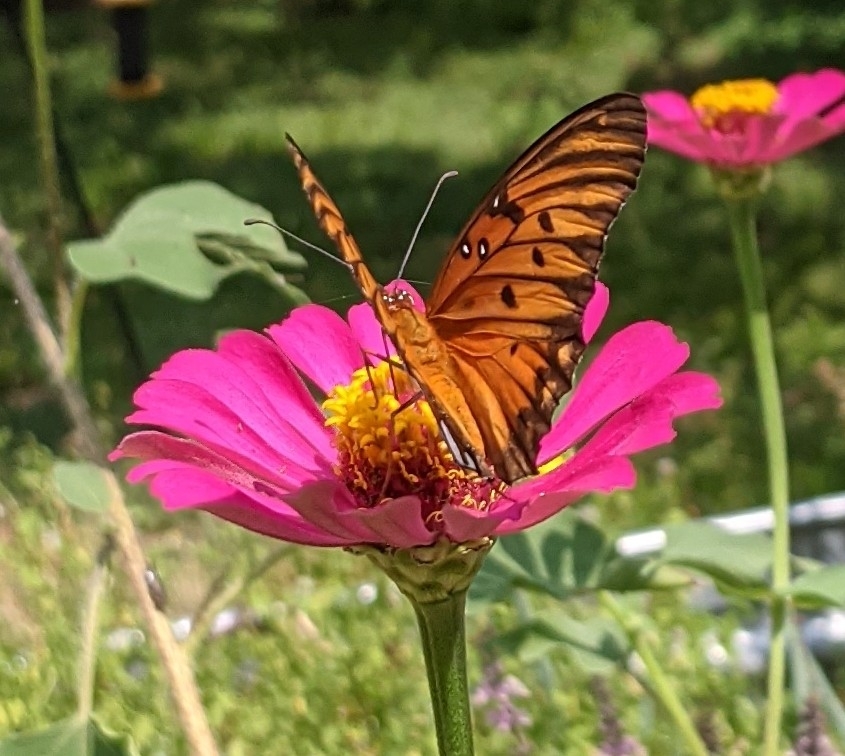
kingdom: Animalia
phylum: Arthropoda
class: Insecta
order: Lepidoptera
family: Nymphalidae
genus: Dione
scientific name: Dione vanillae
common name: Gulf fritillary
